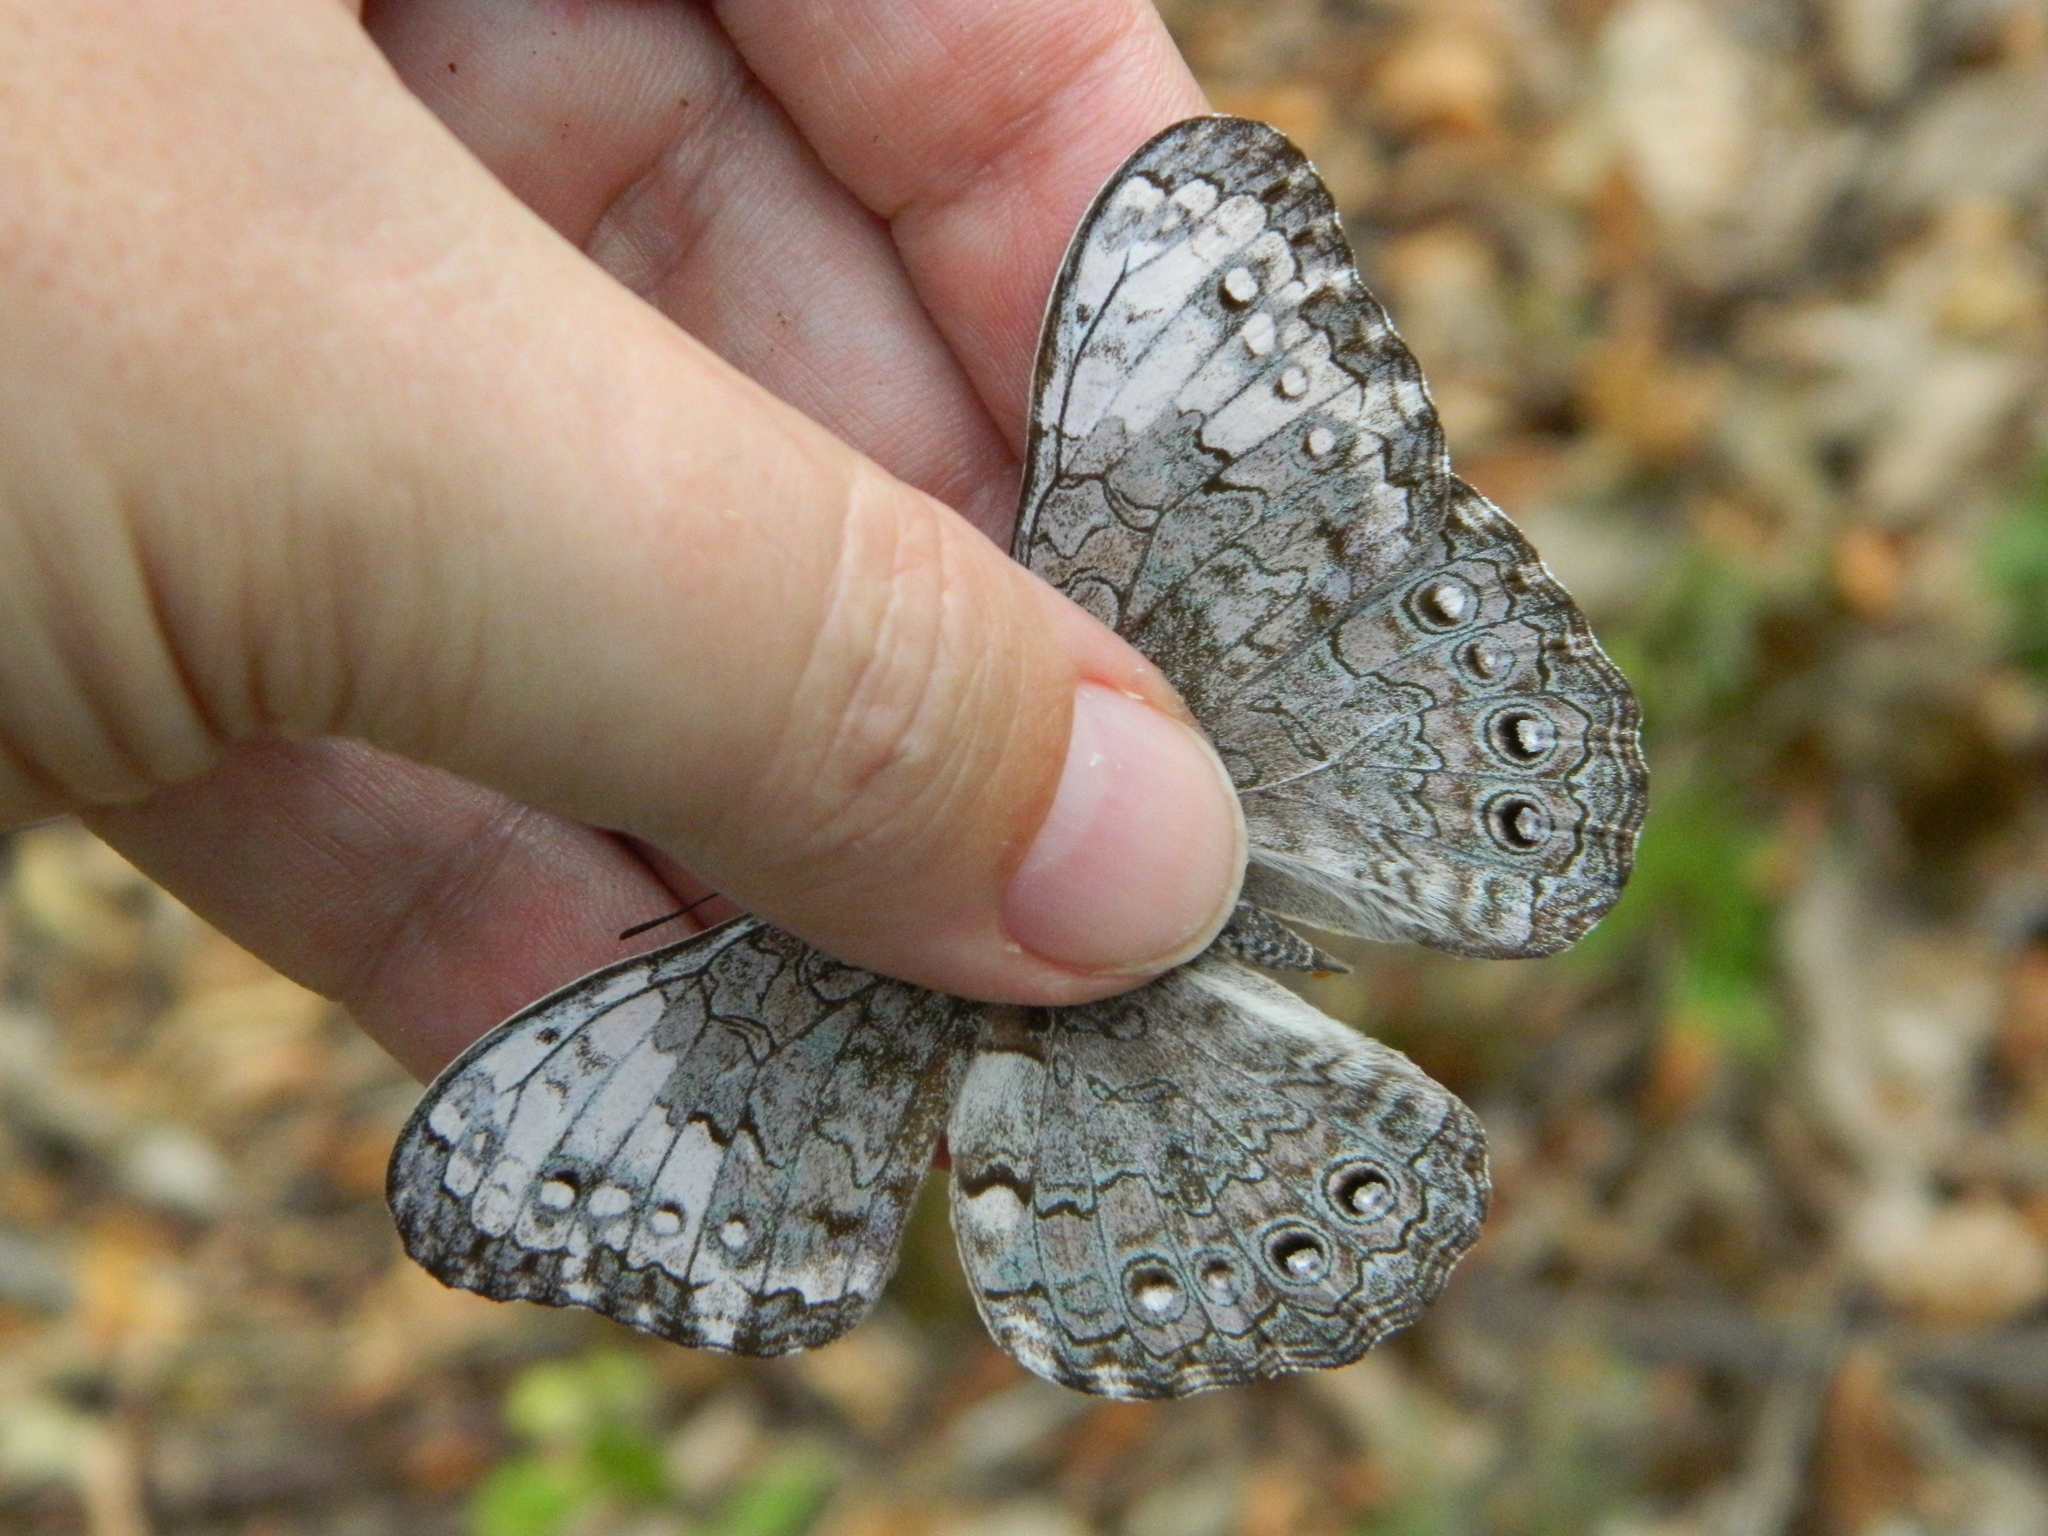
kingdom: Animalia
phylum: Arthropoda
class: Insecta
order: Lepidoptera
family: Nymphalidae
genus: Hamadryas
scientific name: Hamadryas glauconome
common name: Glaucous cracker
